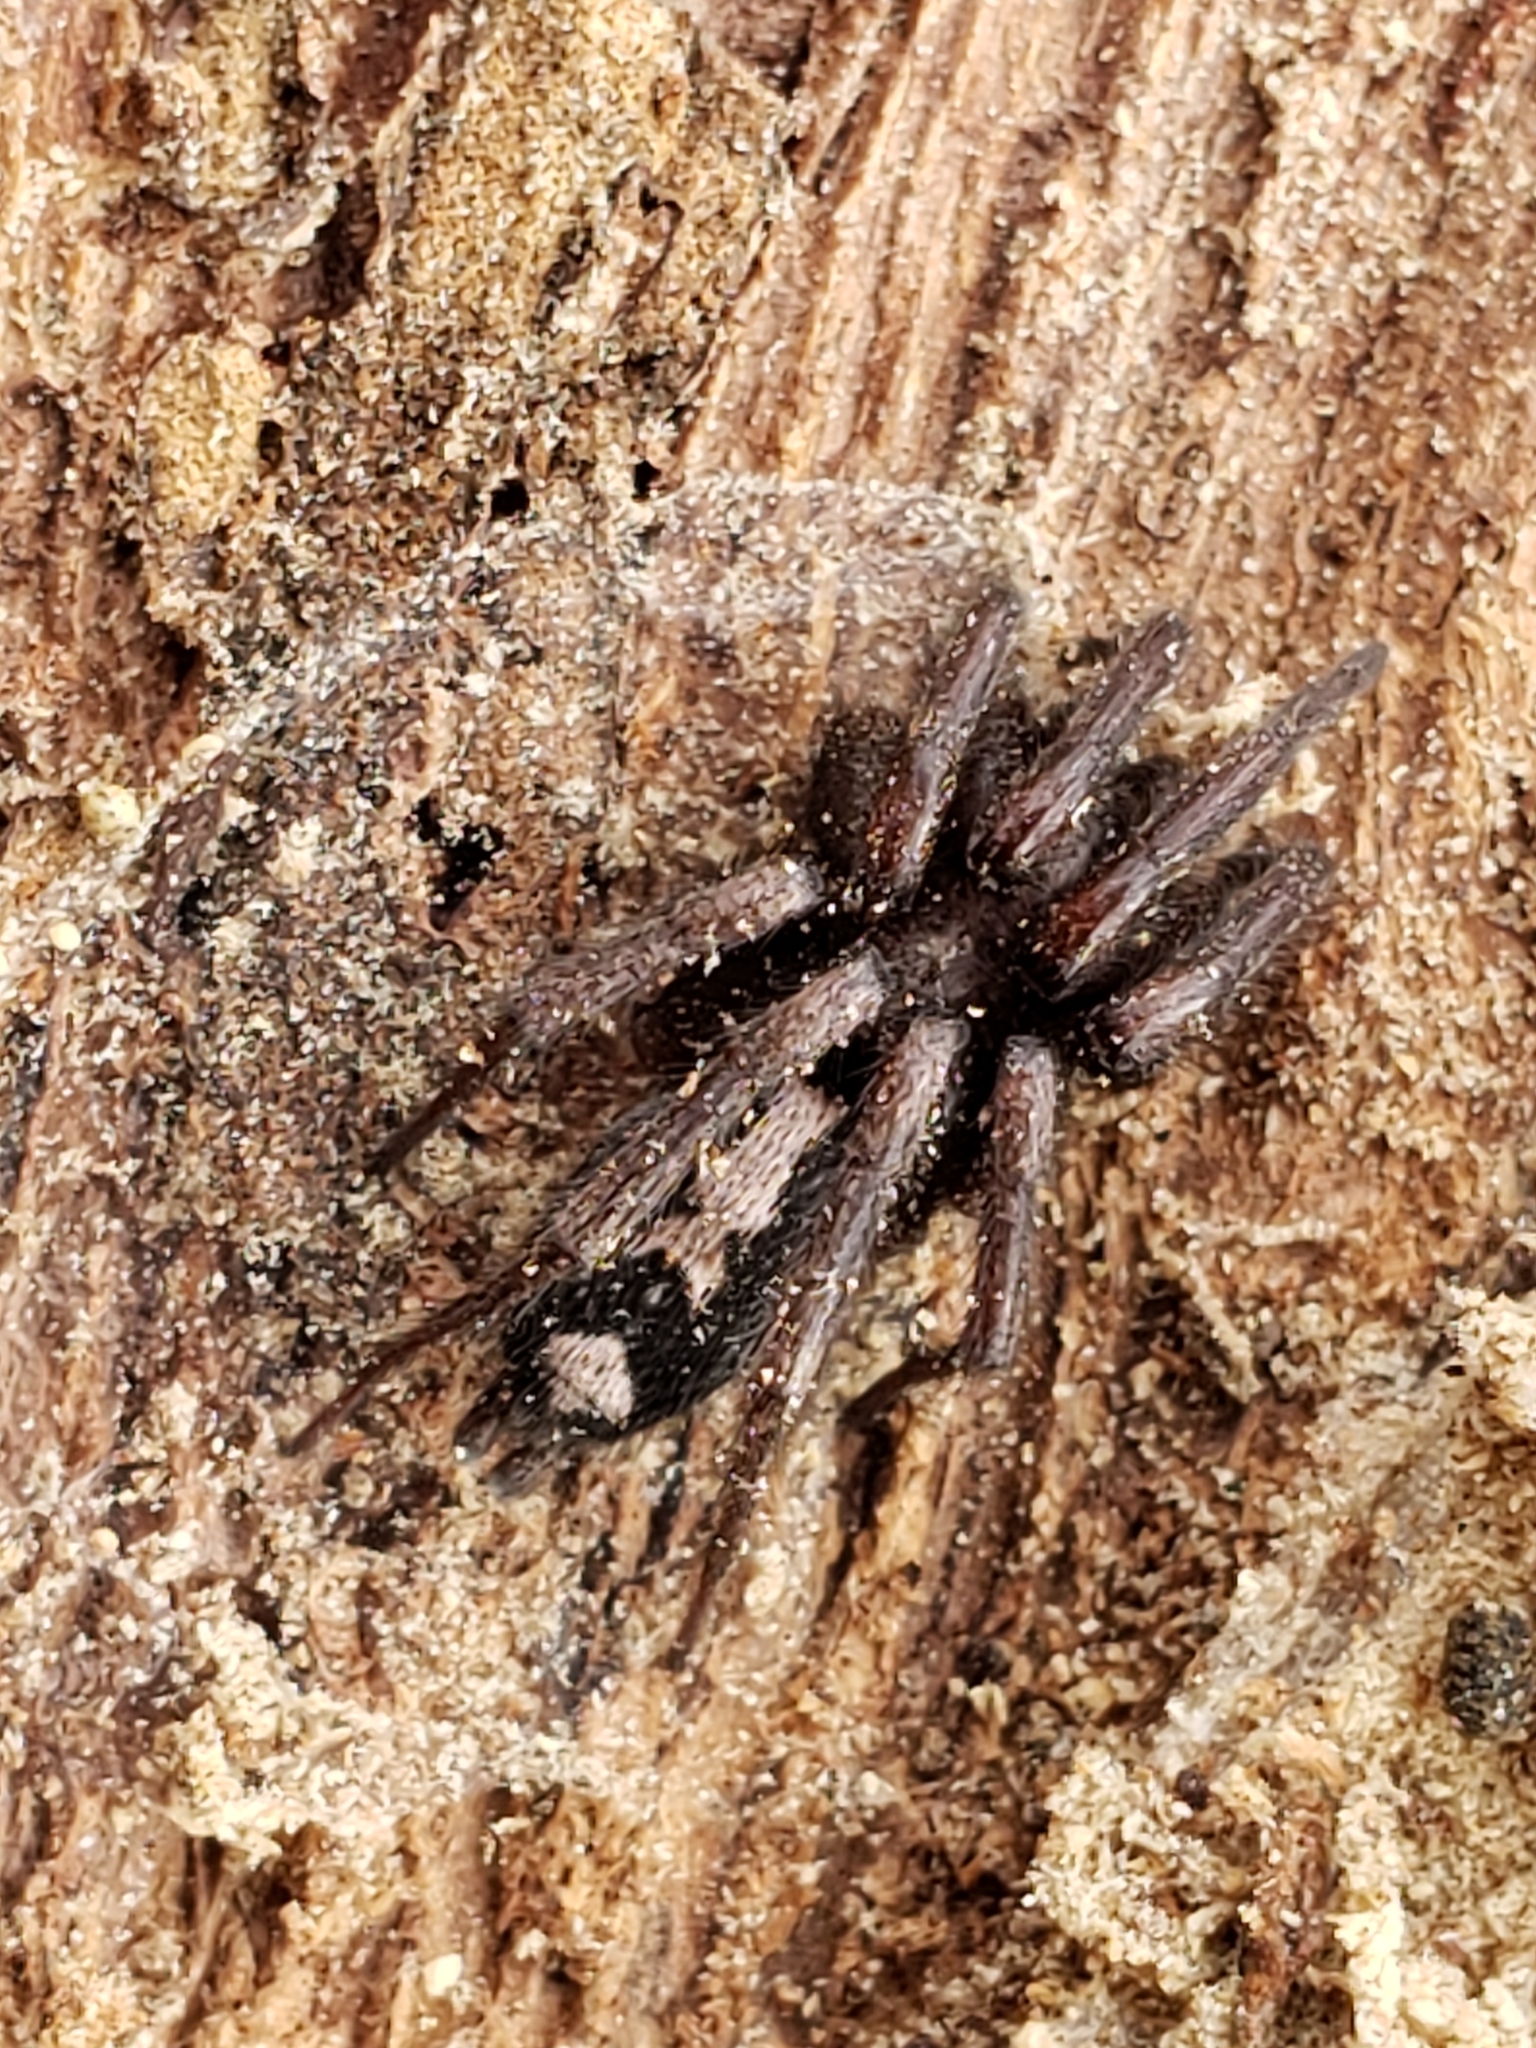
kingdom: Animalia
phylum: Arthropoda
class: Arachnida
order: Araneae
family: Gnaphosidae
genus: Herpyllus
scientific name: Herpyllus ecclesiasticus
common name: Eastern parson spider
